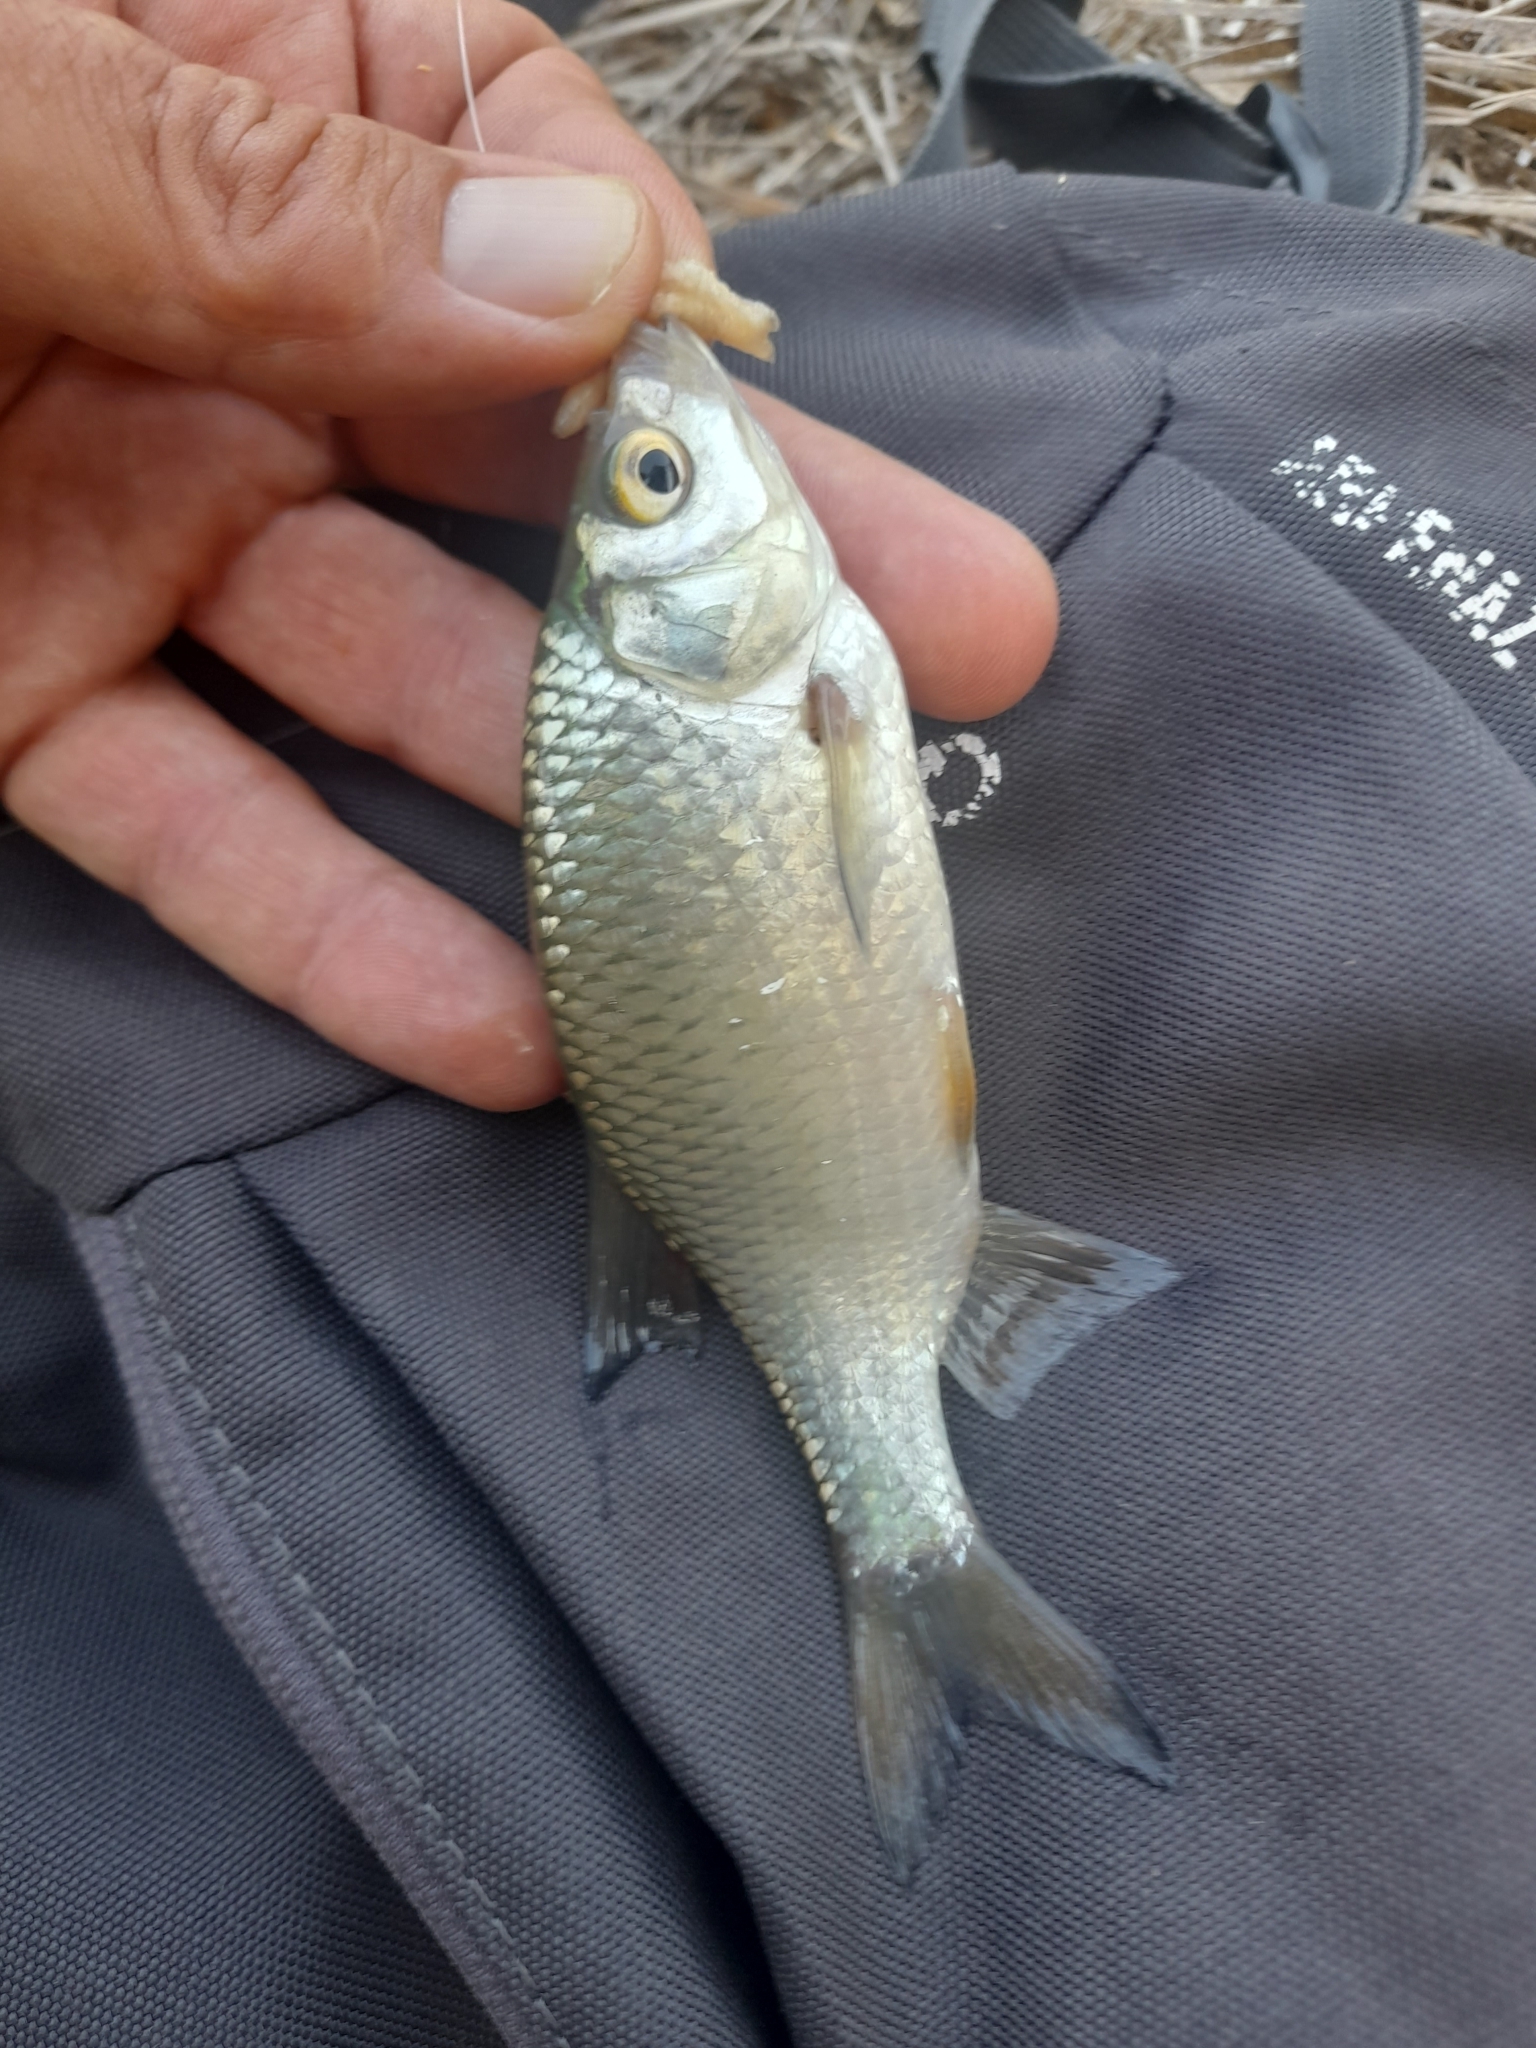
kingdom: Animalia
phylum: Chordata
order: Cypriniformes
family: Cyprinidae
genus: Scardinius
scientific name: Scardinius hesperidicus
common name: Italian rudd
